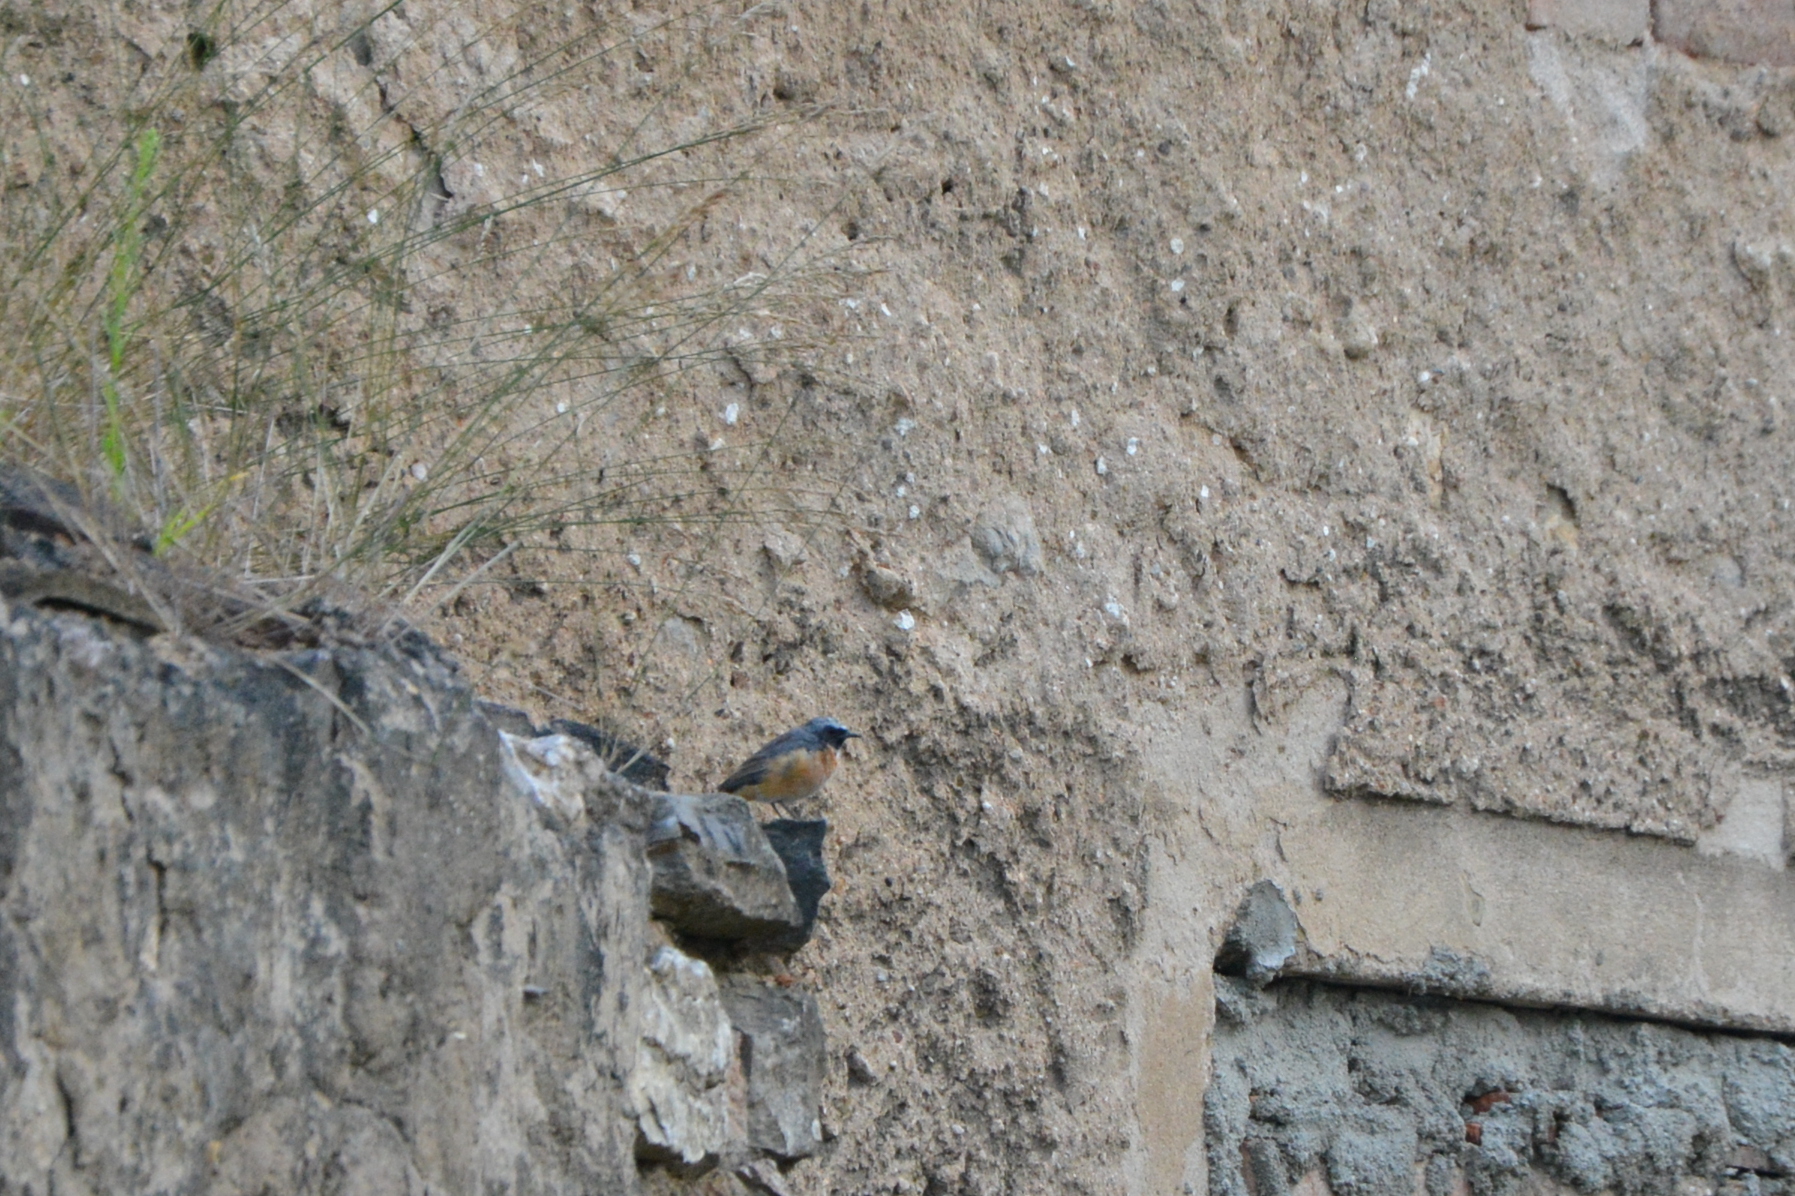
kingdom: Animalia
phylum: Chordata
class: Aves
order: Passeriformes
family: Muscicapidae
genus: Phoenicurus
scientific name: Phoenicurus phoenicurus
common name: Common redstart
